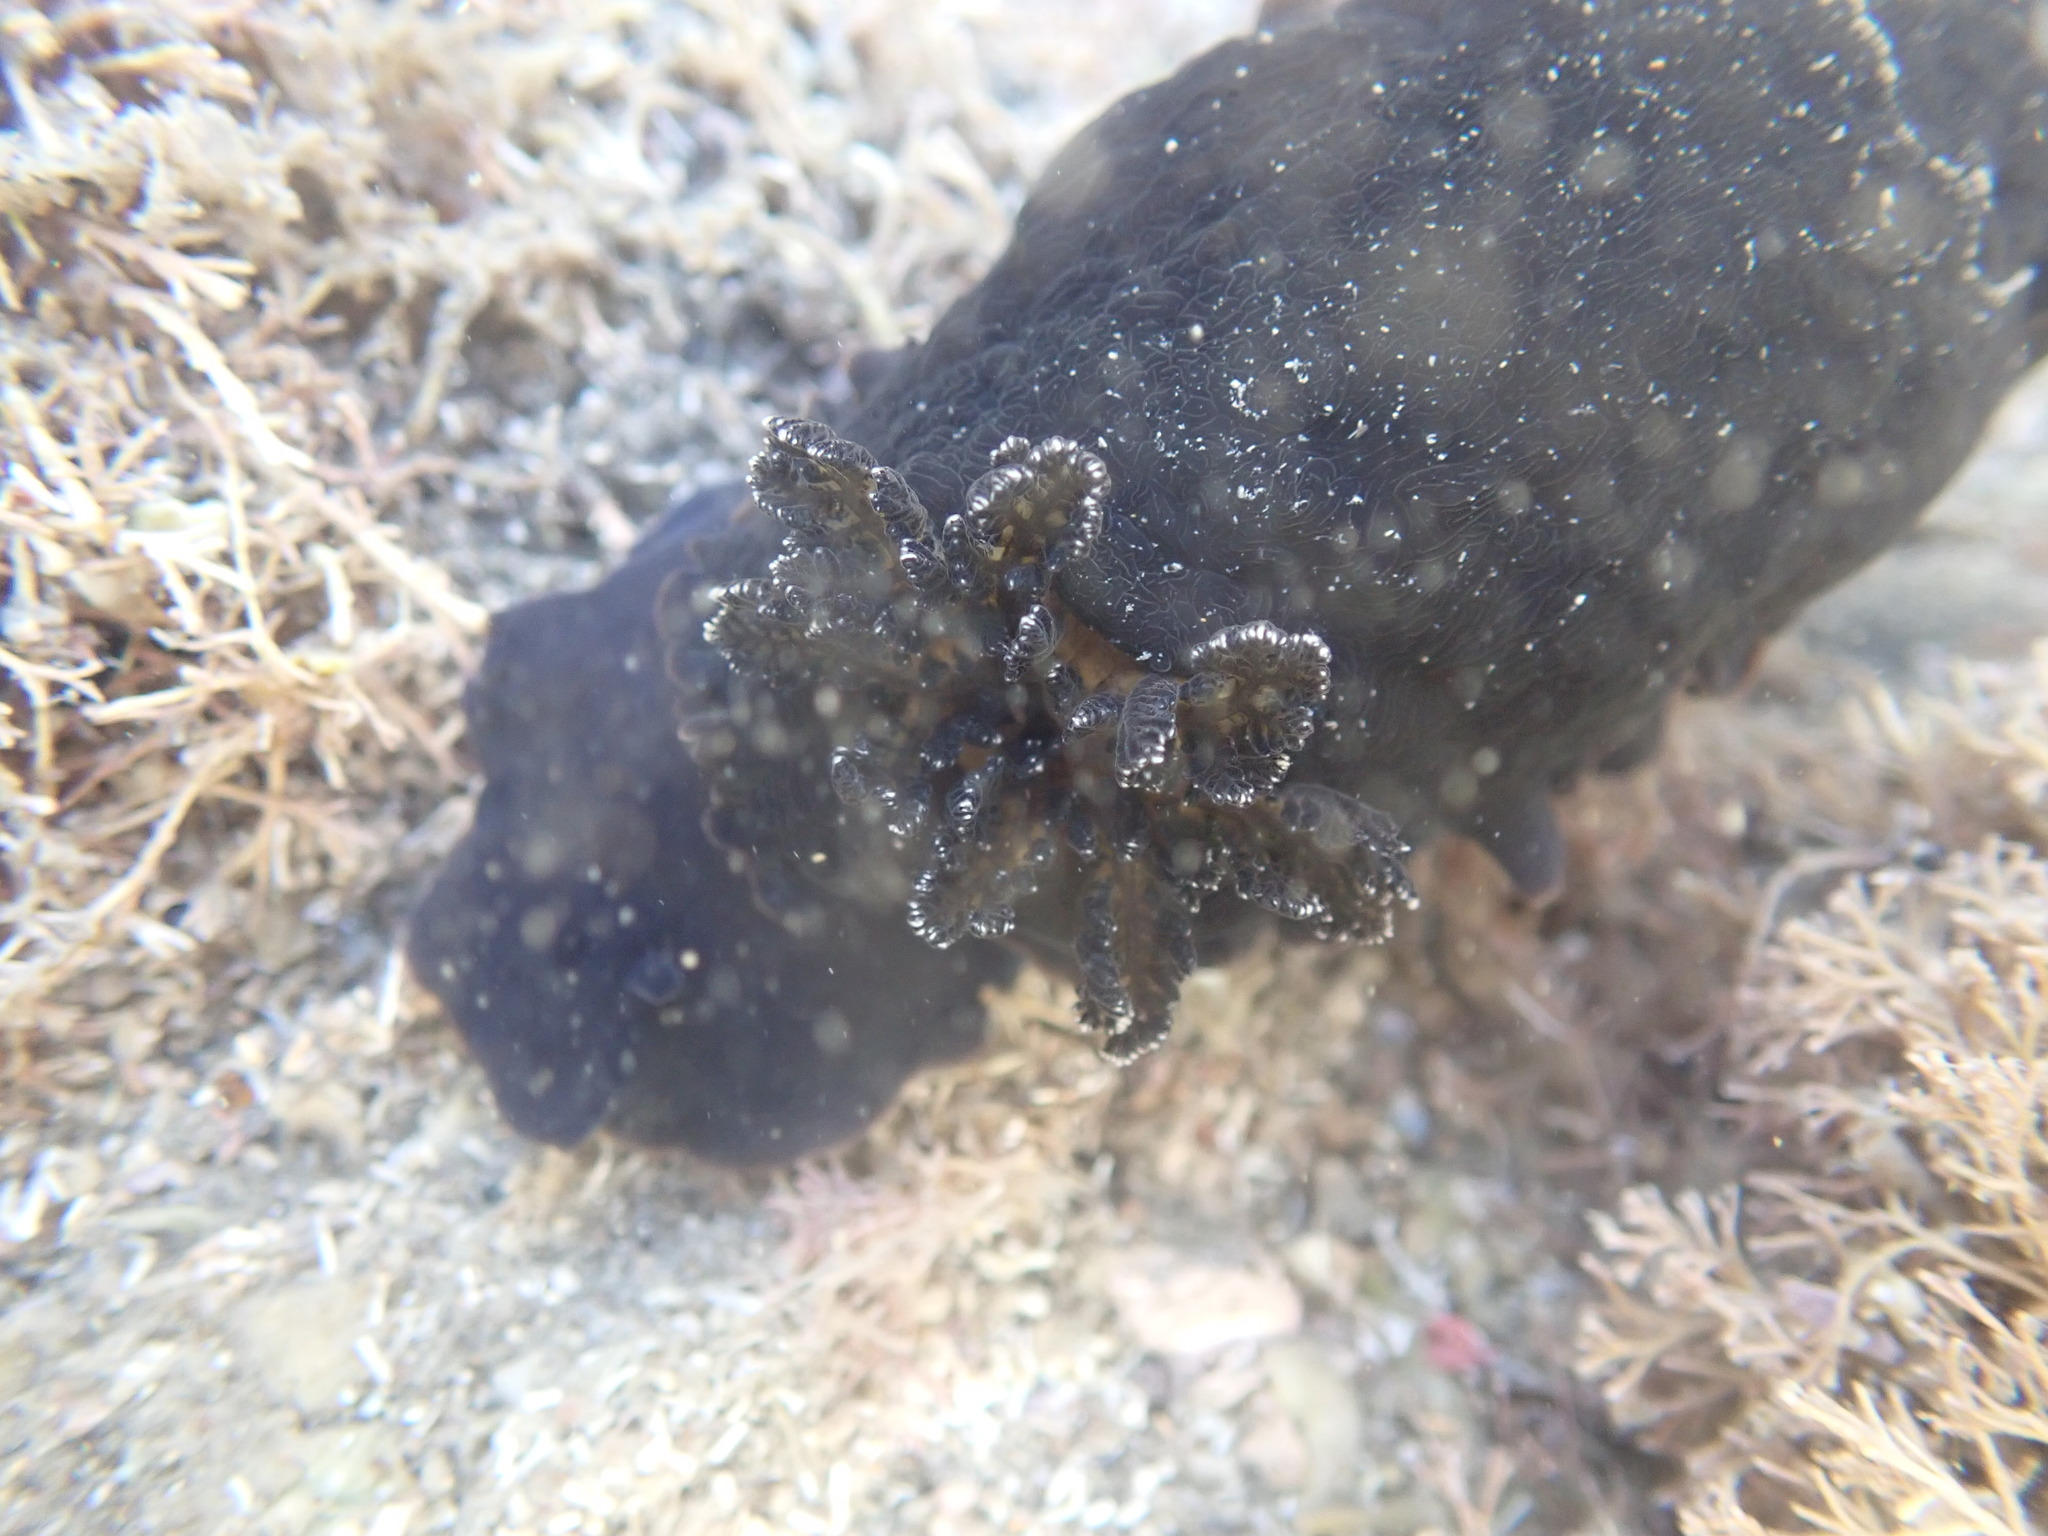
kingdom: Animalia
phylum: Mollusca
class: Gastropoda
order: Nudibranchia
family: Dendrodorididae
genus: Dendrodoris
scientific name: Dendrodoris nigra
